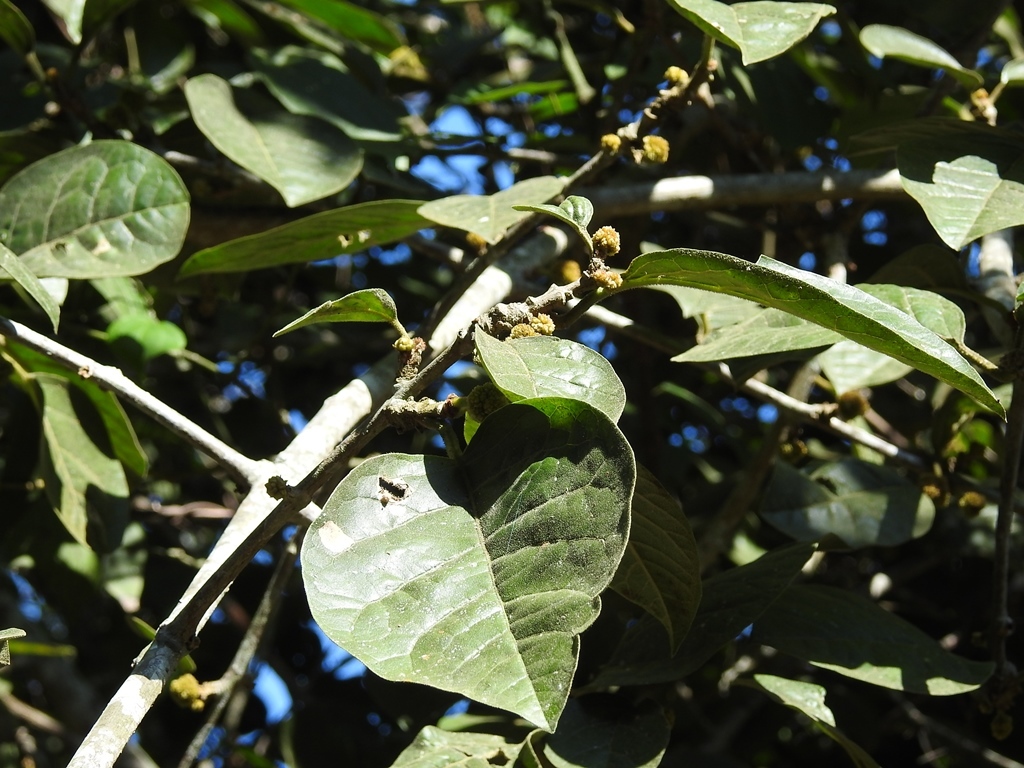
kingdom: Plantae
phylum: Tracheophyta
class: Magnoliopsida
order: Caryophyllales
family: Nyctaginaceae
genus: Pisonia
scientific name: Pisonia donnellsmithii
